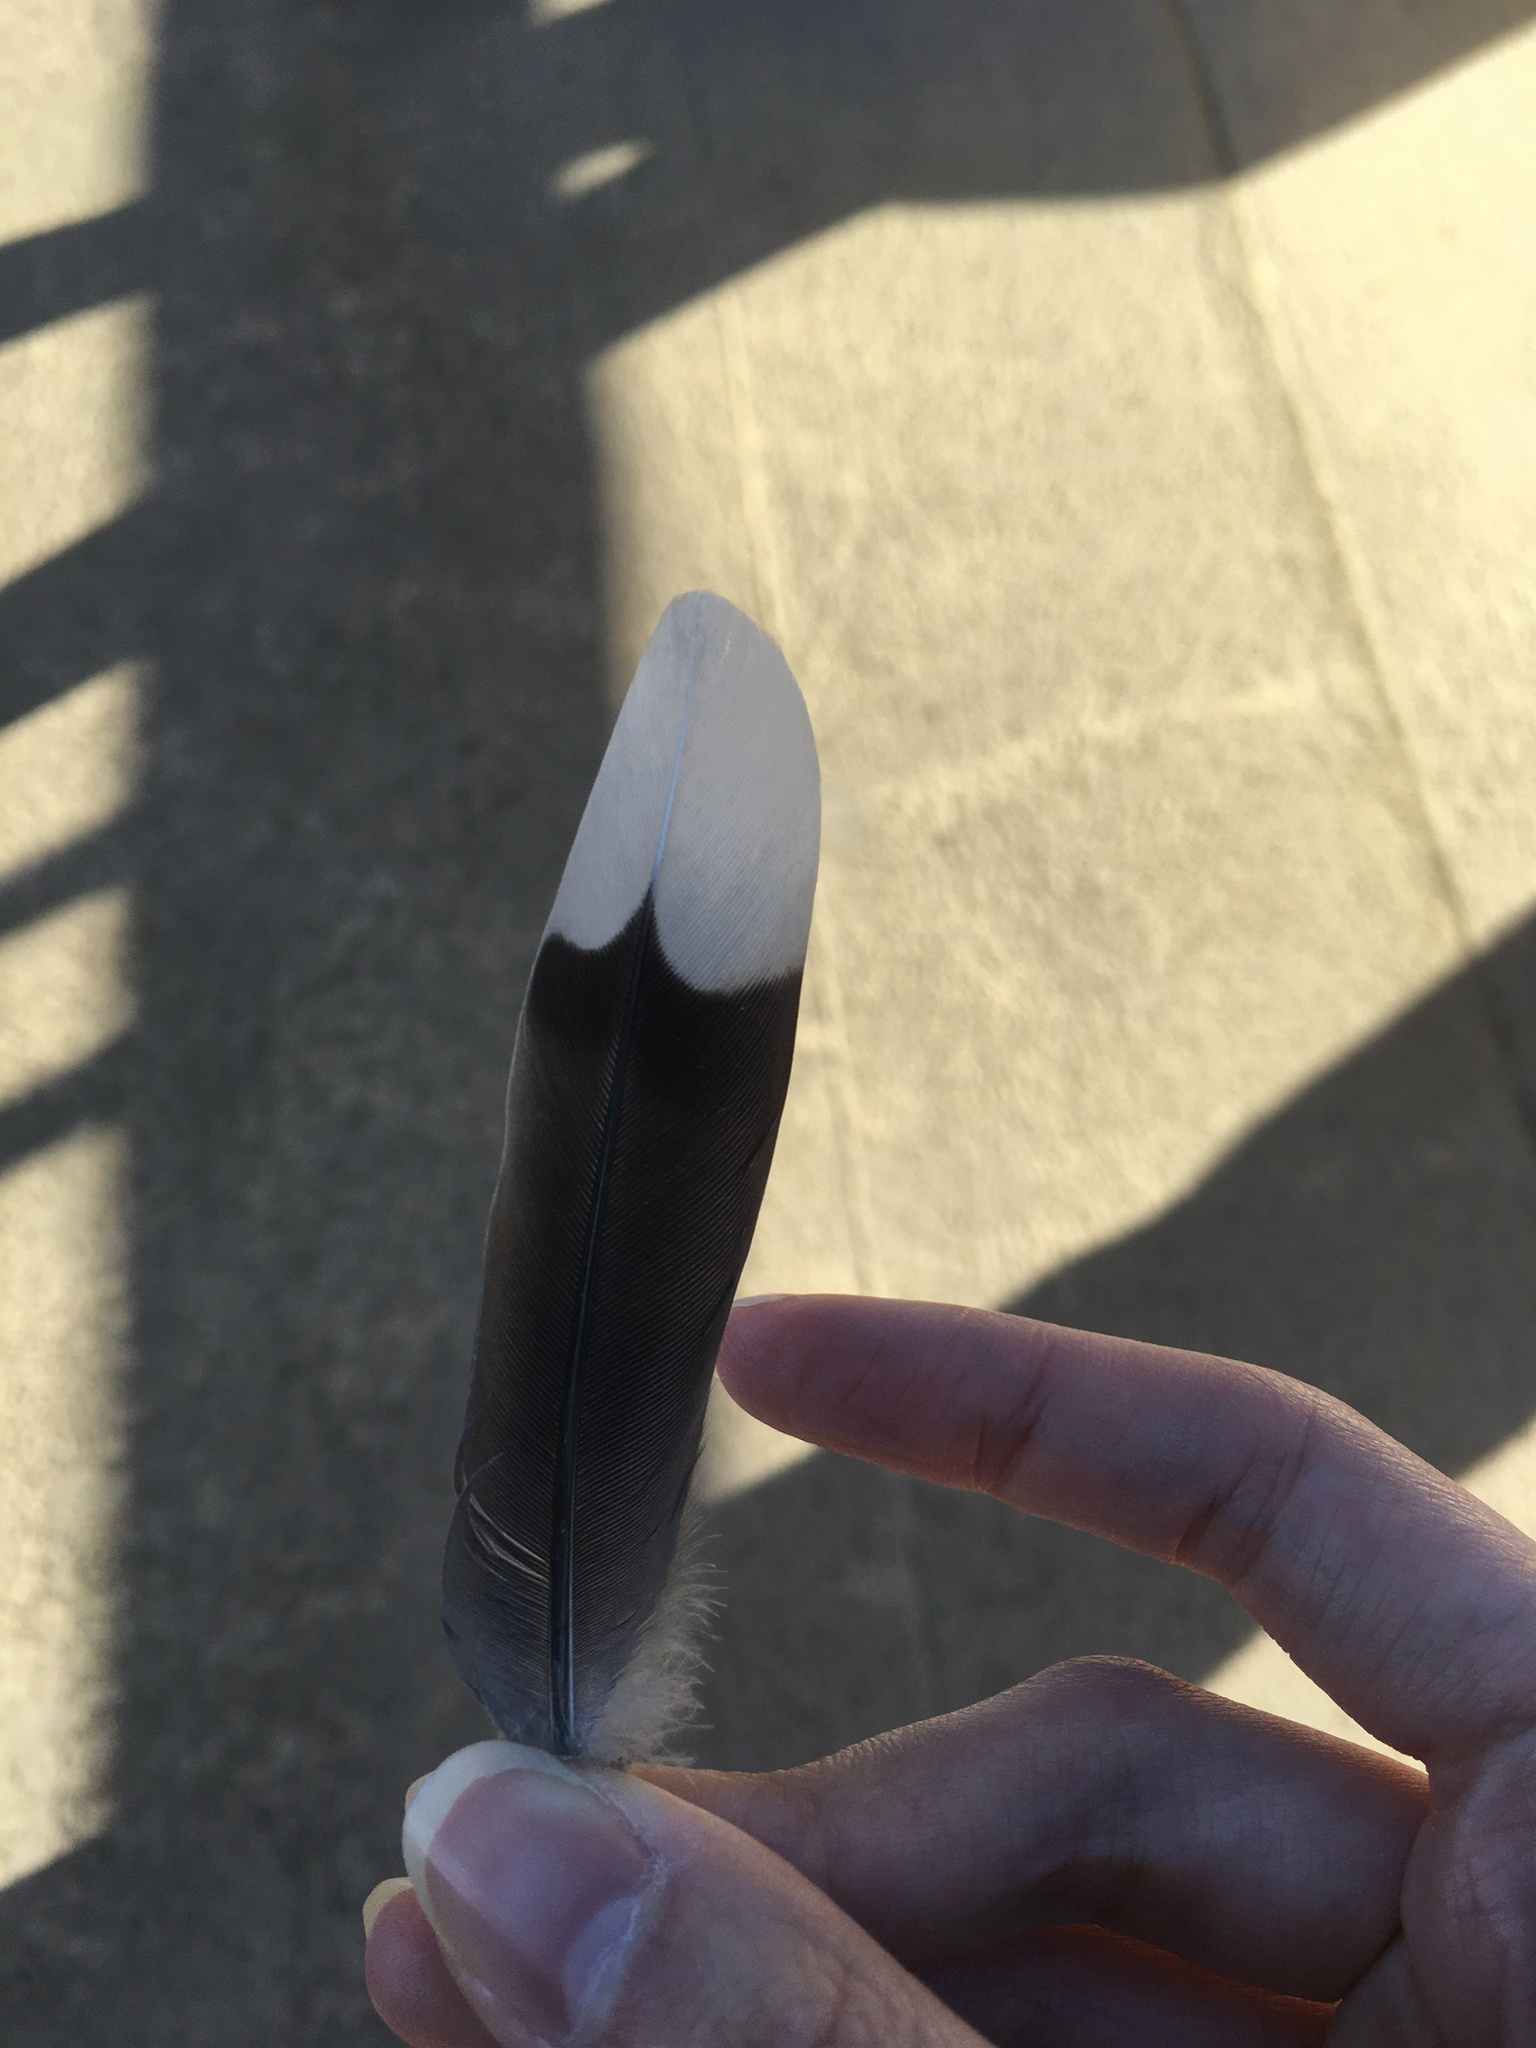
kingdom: Animalia
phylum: Chordata
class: Aves
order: Columbiformes
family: Columbidae
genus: Zenaida
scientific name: Zenaida macroura
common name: Mourning dove
